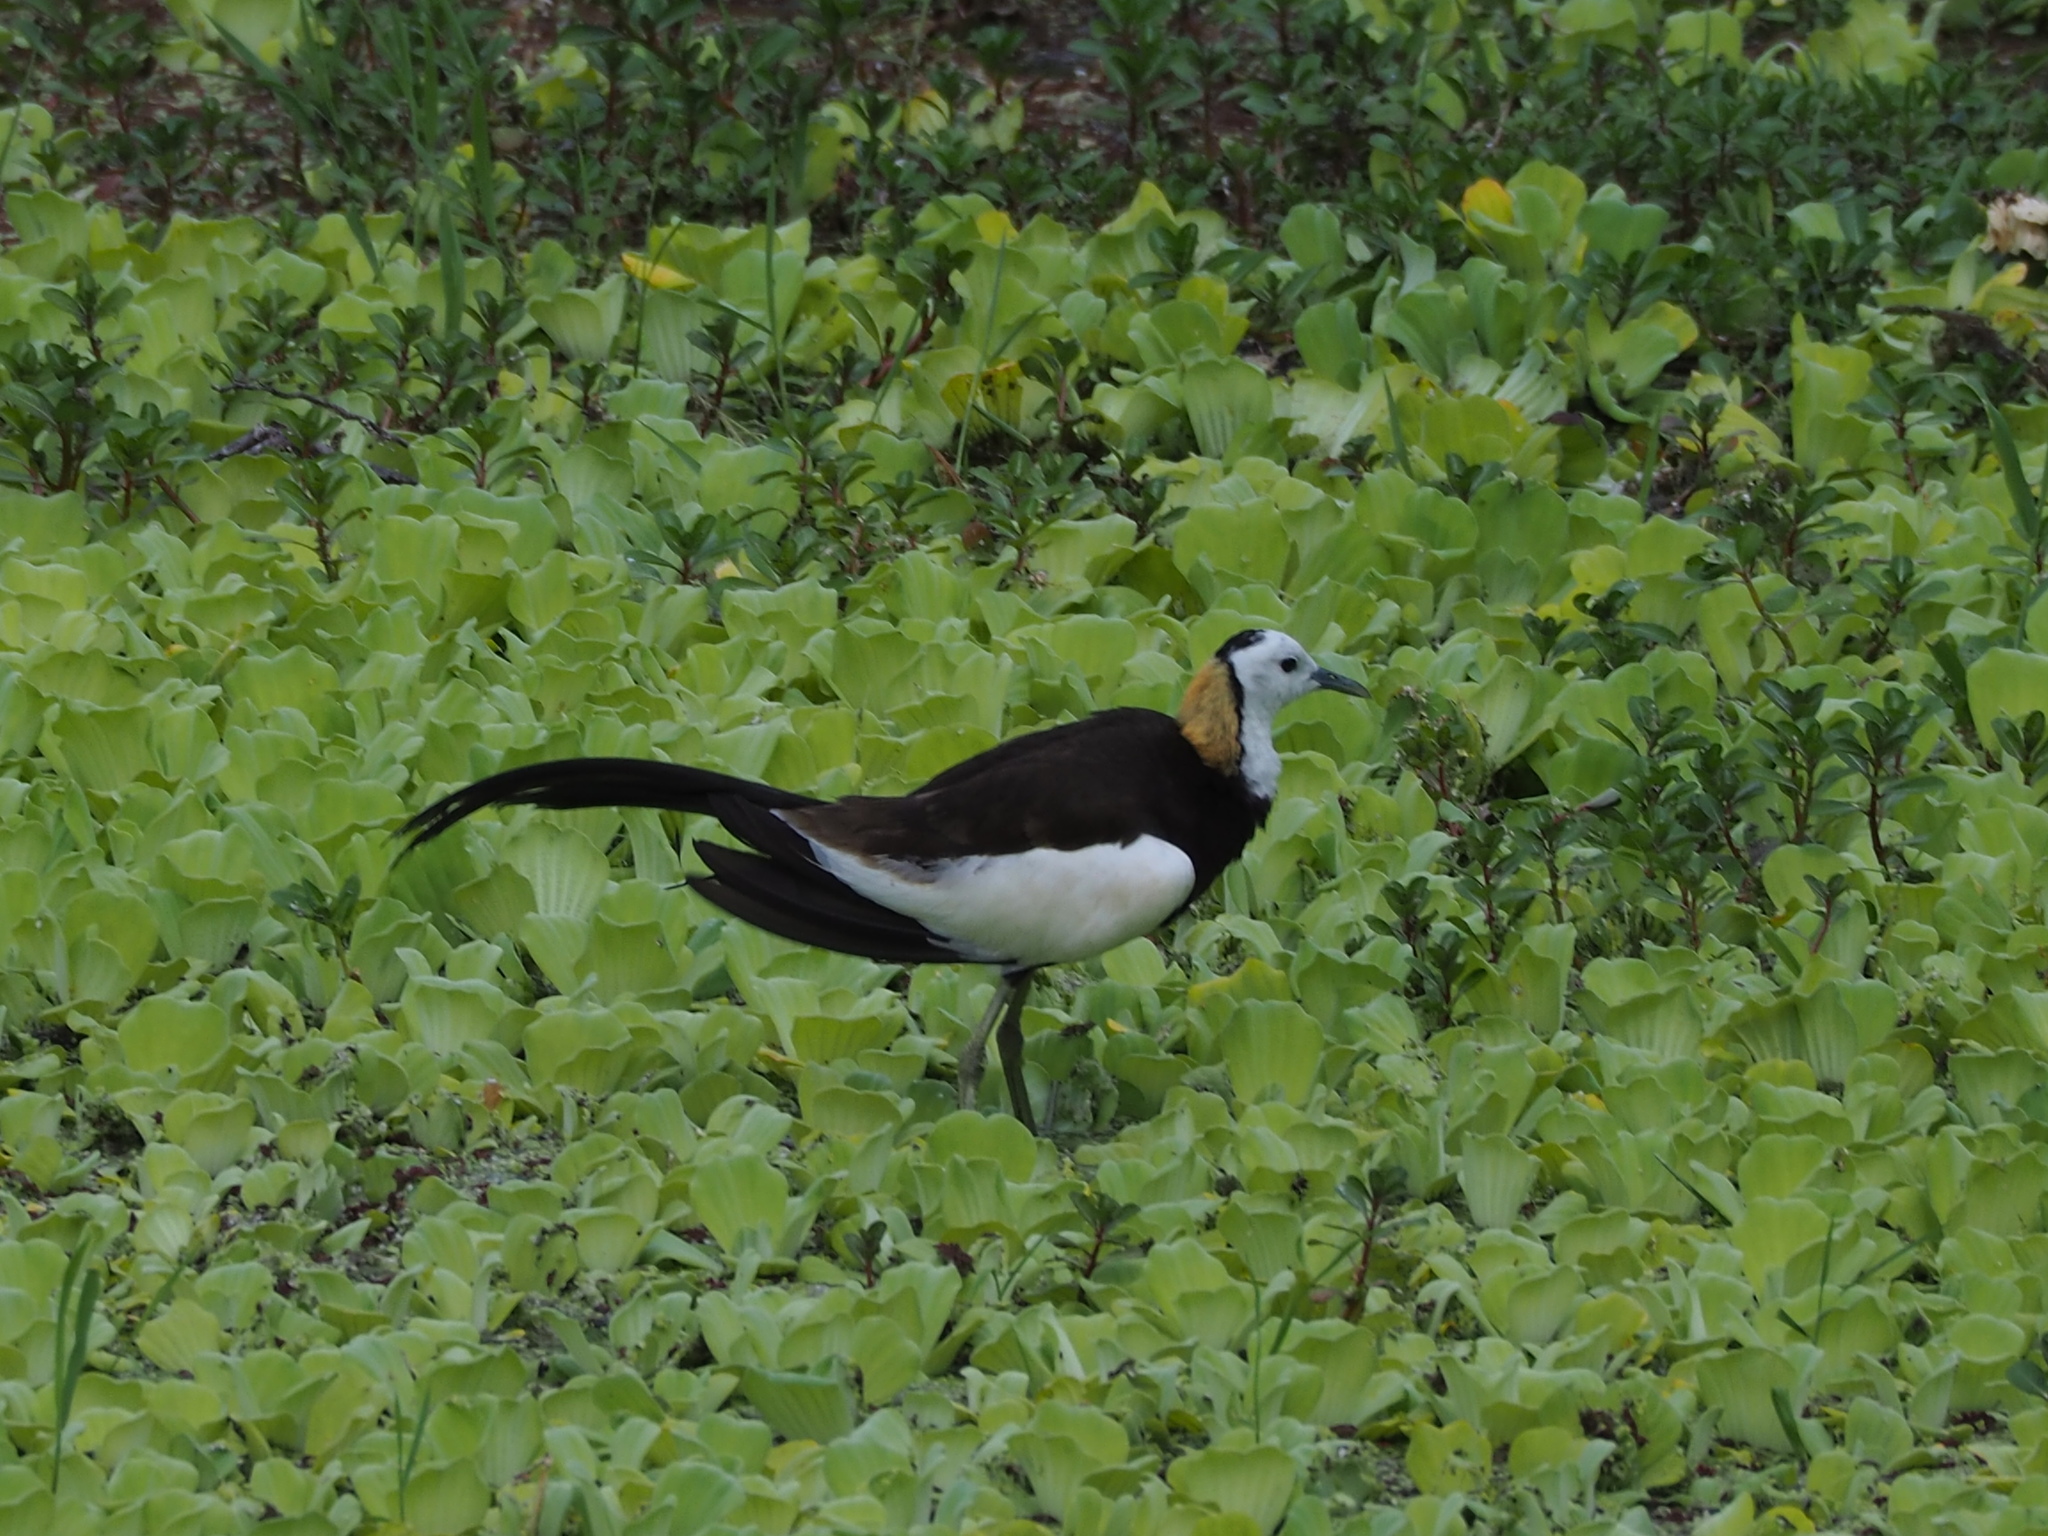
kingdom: Animalia
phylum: Chordata
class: Aves
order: Charadriiformes
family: Jacanidae
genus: Hydrophasianus
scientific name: Hydrophasianus chirurgus
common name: Pheasant-tailed jacana
